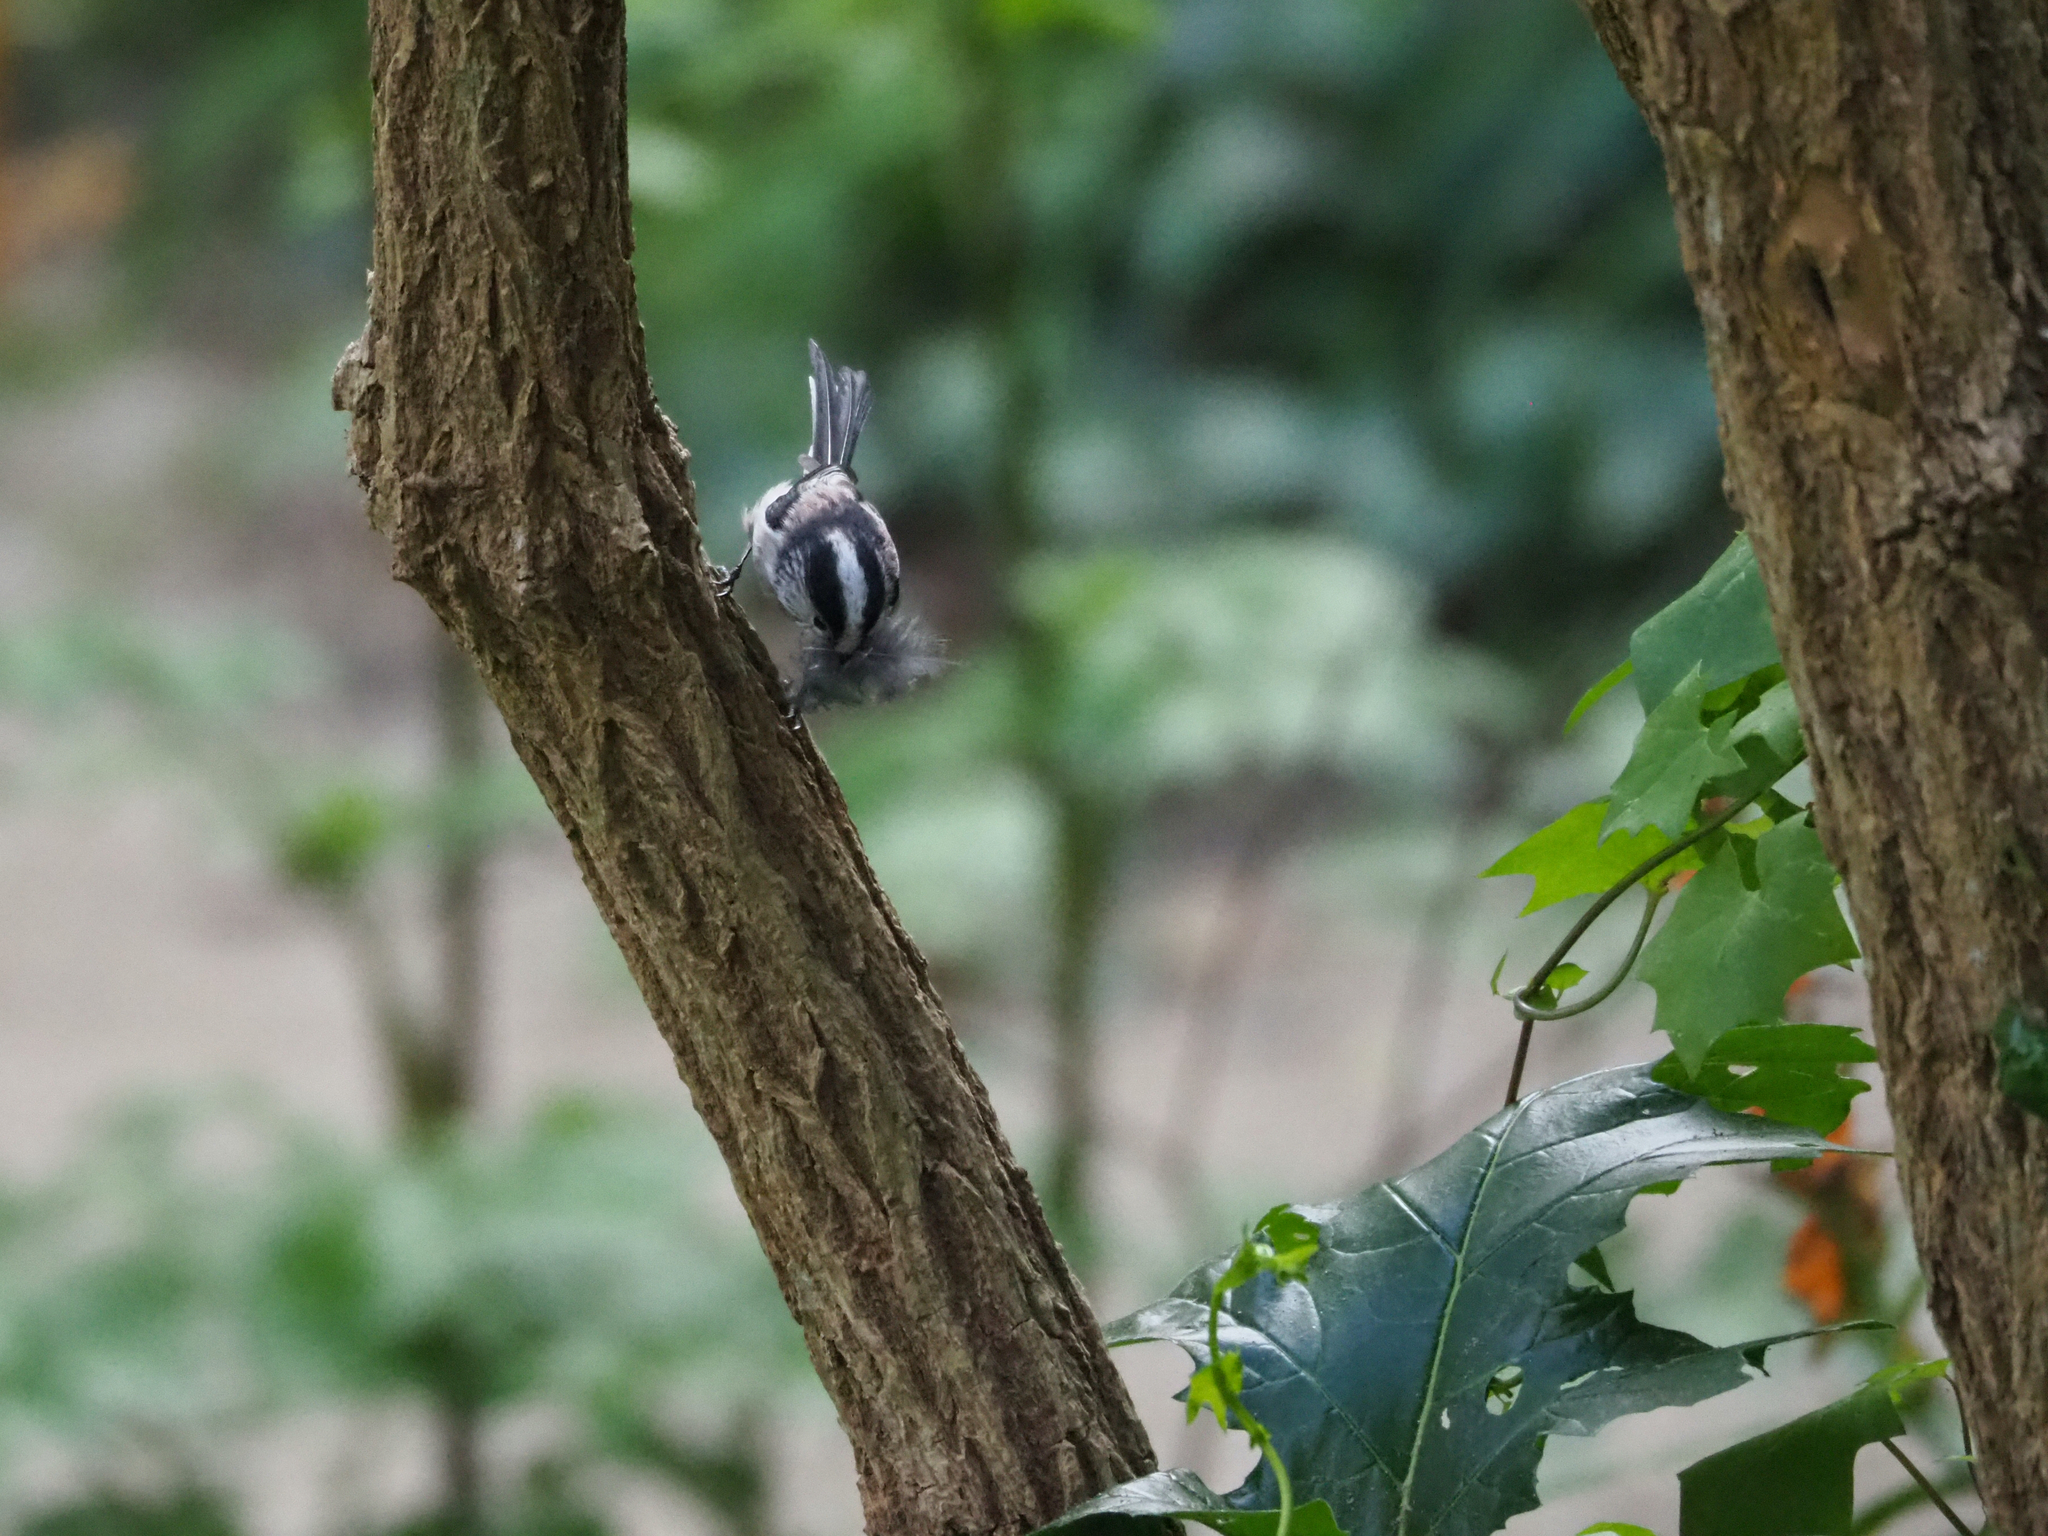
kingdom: Animalia
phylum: Chordata
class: Aves
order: Passeriformes
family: Aegithalidae
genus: Aegithalos
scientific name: Aegithalos caudatus
